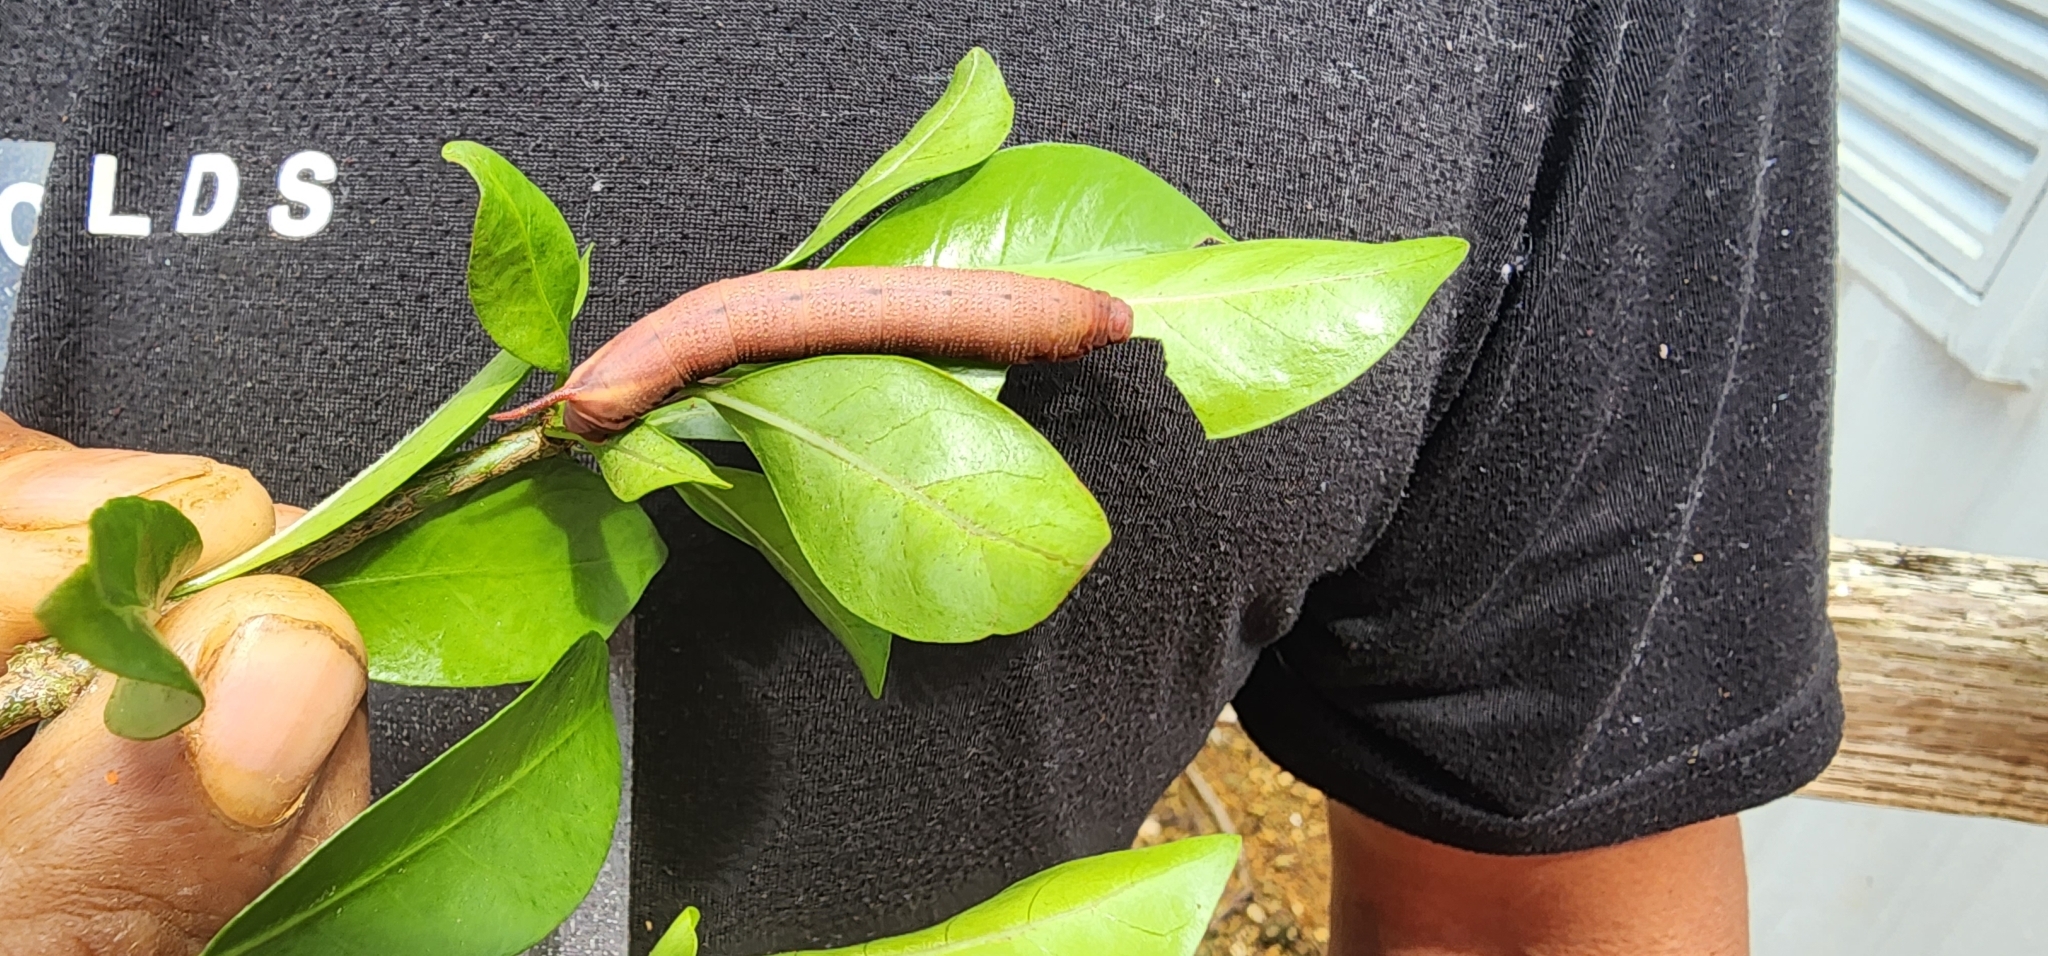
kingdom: Animalia
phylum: Arthropoda
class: Insecta
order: Lepidoptera
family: Sphingidae
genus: Neogurelca
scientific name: Neogurelca hyas
